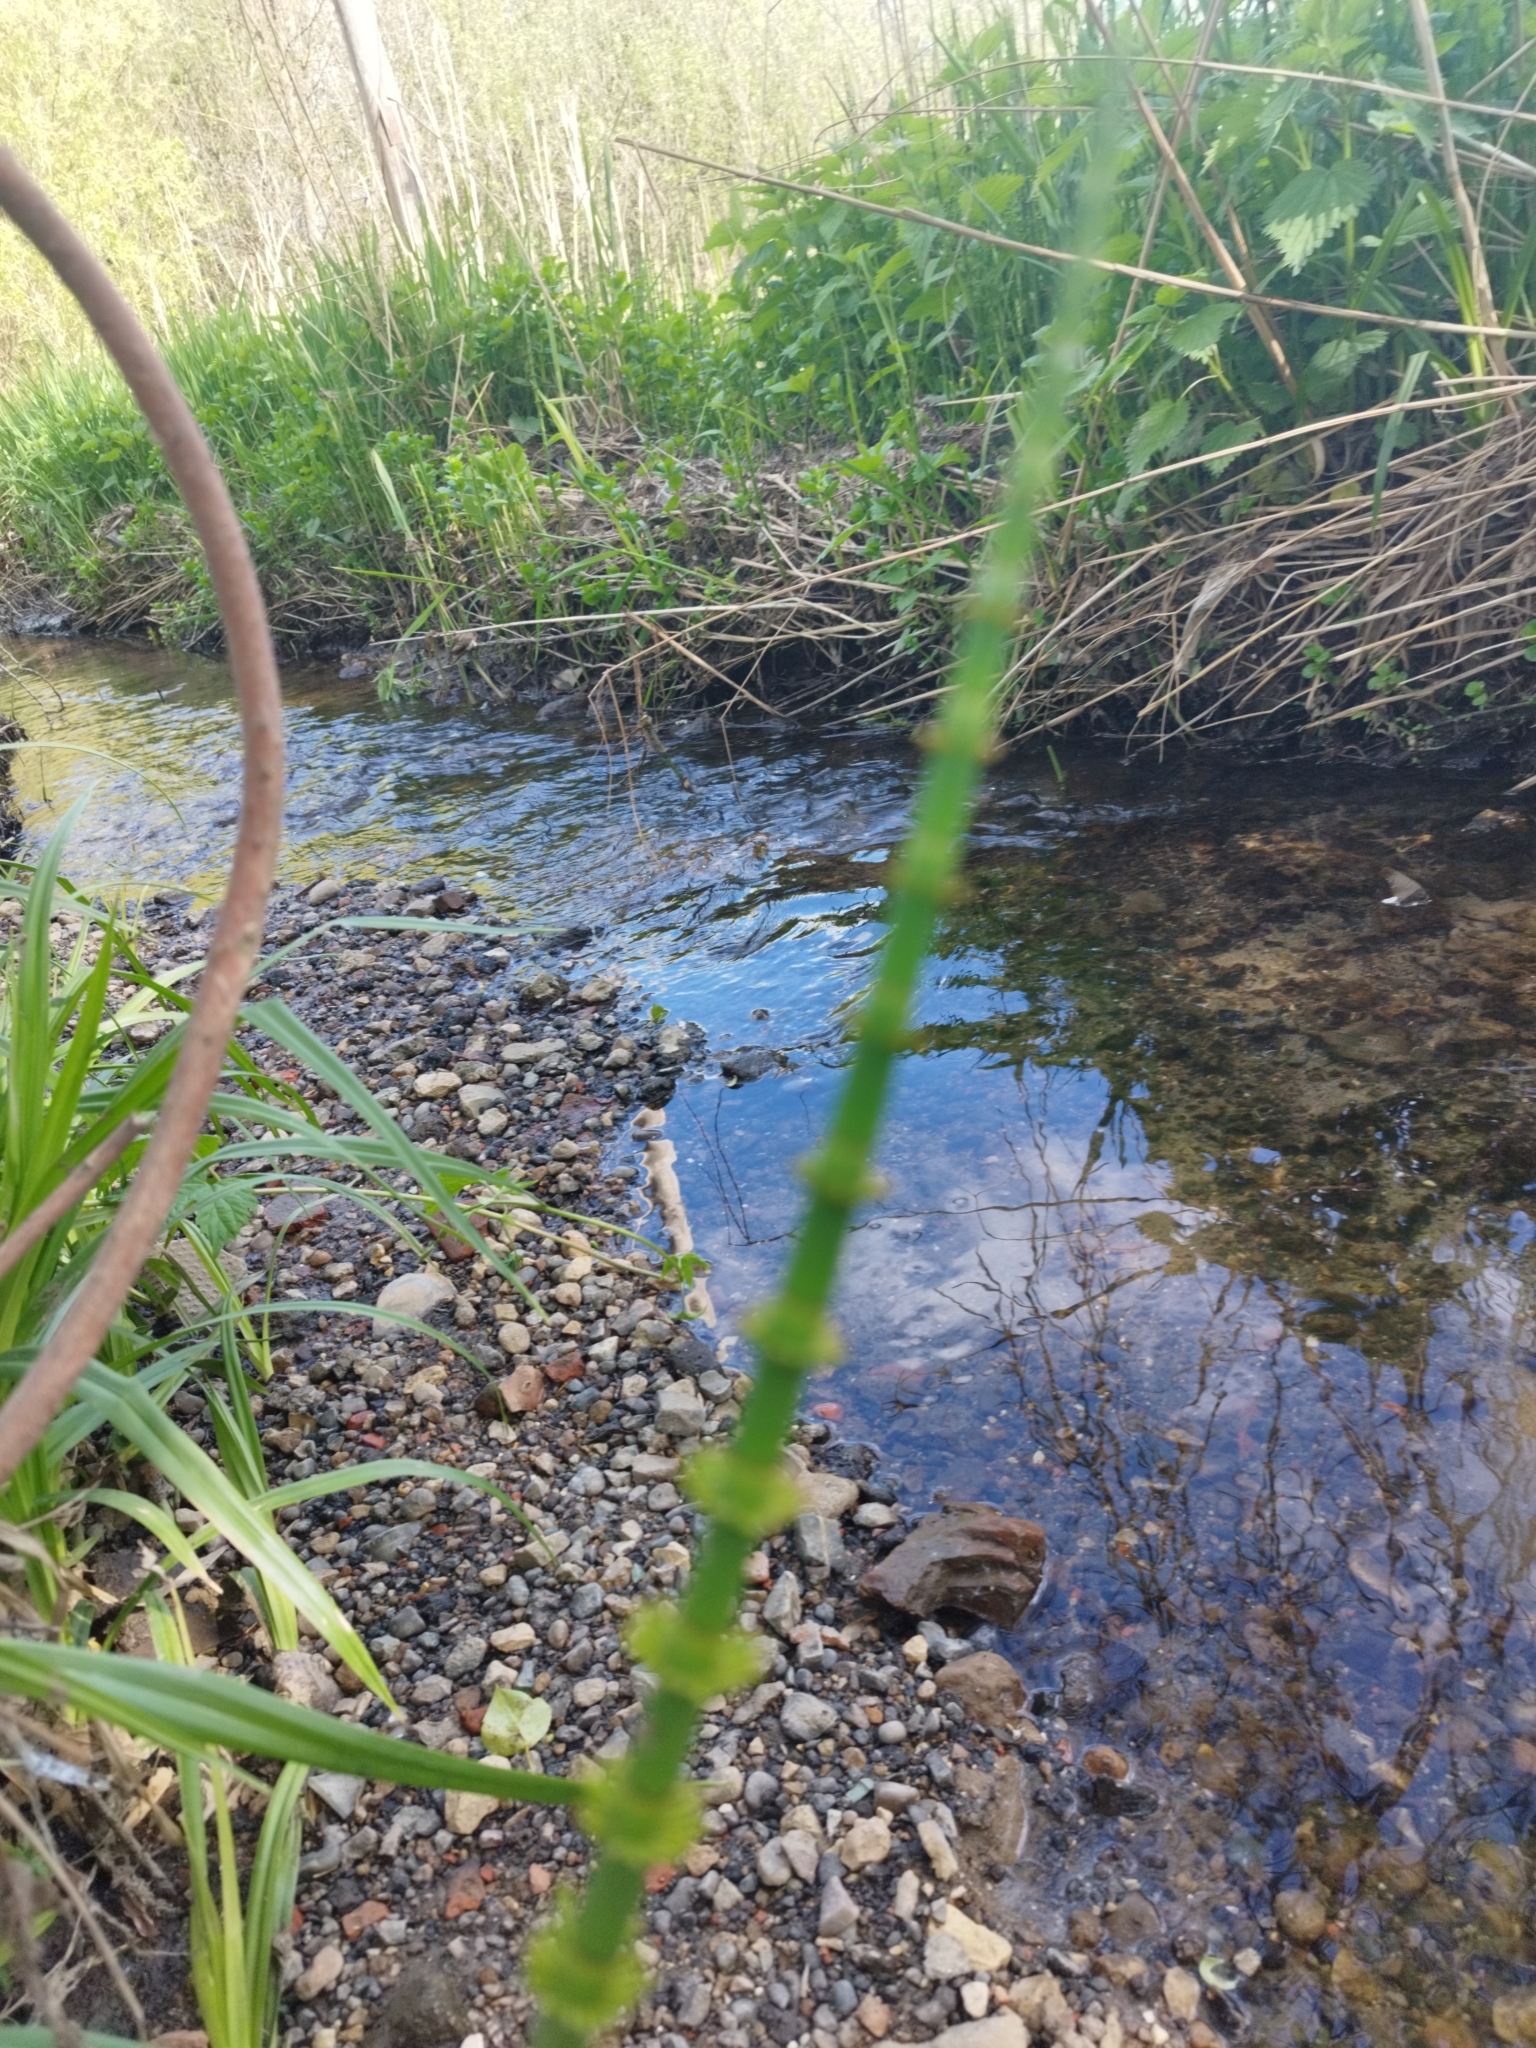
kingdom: Plantae
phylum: Tracheophyta
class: Polypodiopsida
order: Equisetales
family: Equisetaceae
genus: Equisetum
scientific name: Equisetum fluviatile
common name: Water horsetail
